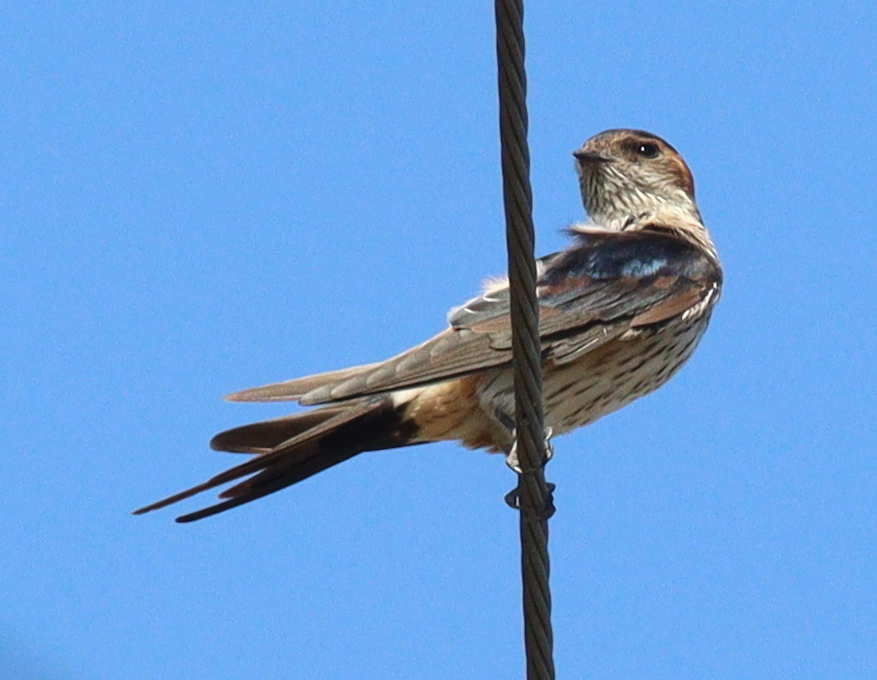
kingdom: Animalia
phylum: Chordata
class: Aves
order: Passeriformes
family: Hirundinidae
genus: Cecropis
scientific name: Cecropis striolata
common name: Striated swallow
